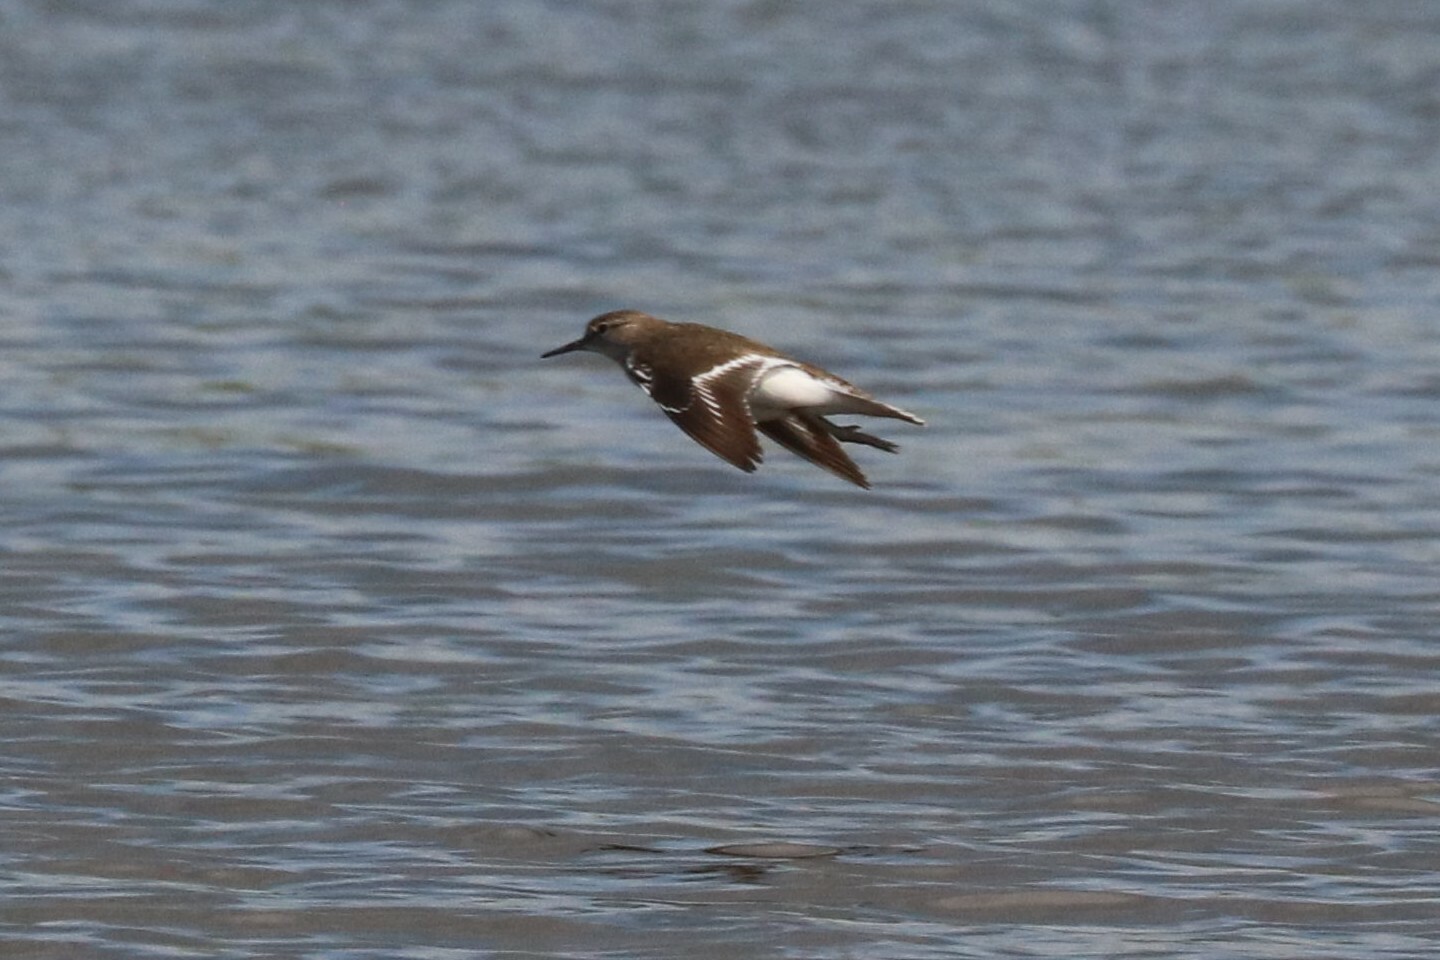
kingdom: Animalia
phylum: Chordata
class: Aves
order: Charadriiformes
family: Scolopacidae
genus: Actitis
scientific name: Actitis hypoleucos
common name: Common sandpiper
